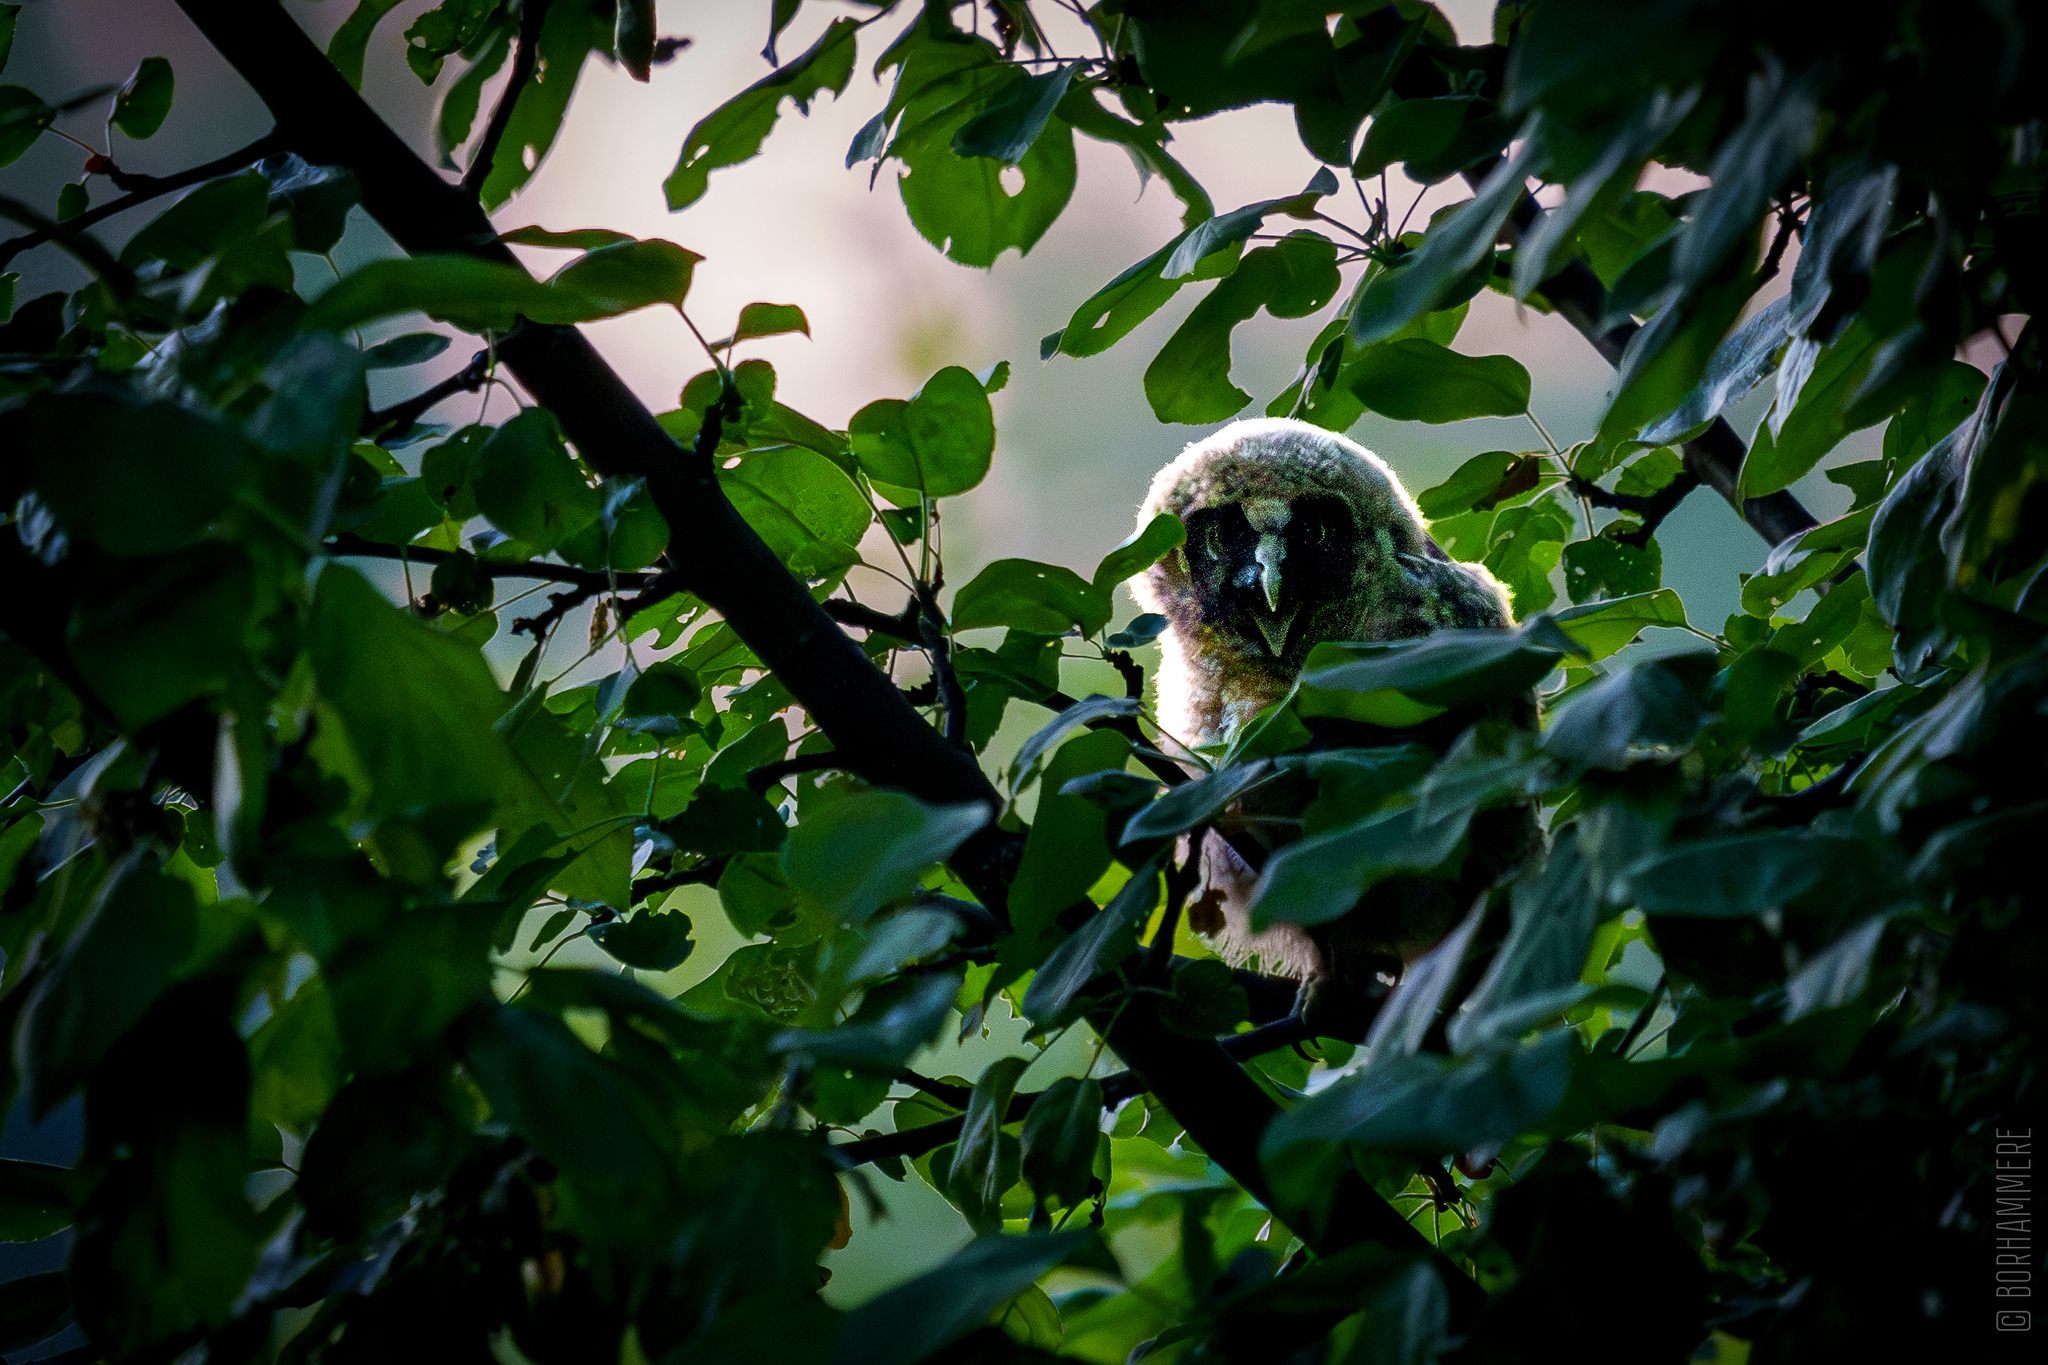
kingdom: Animalia
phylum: Chordata
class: Aves
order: Strigiformes
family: Strigidae
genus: Asio
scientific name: Asio otus
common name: Long-eared owl
